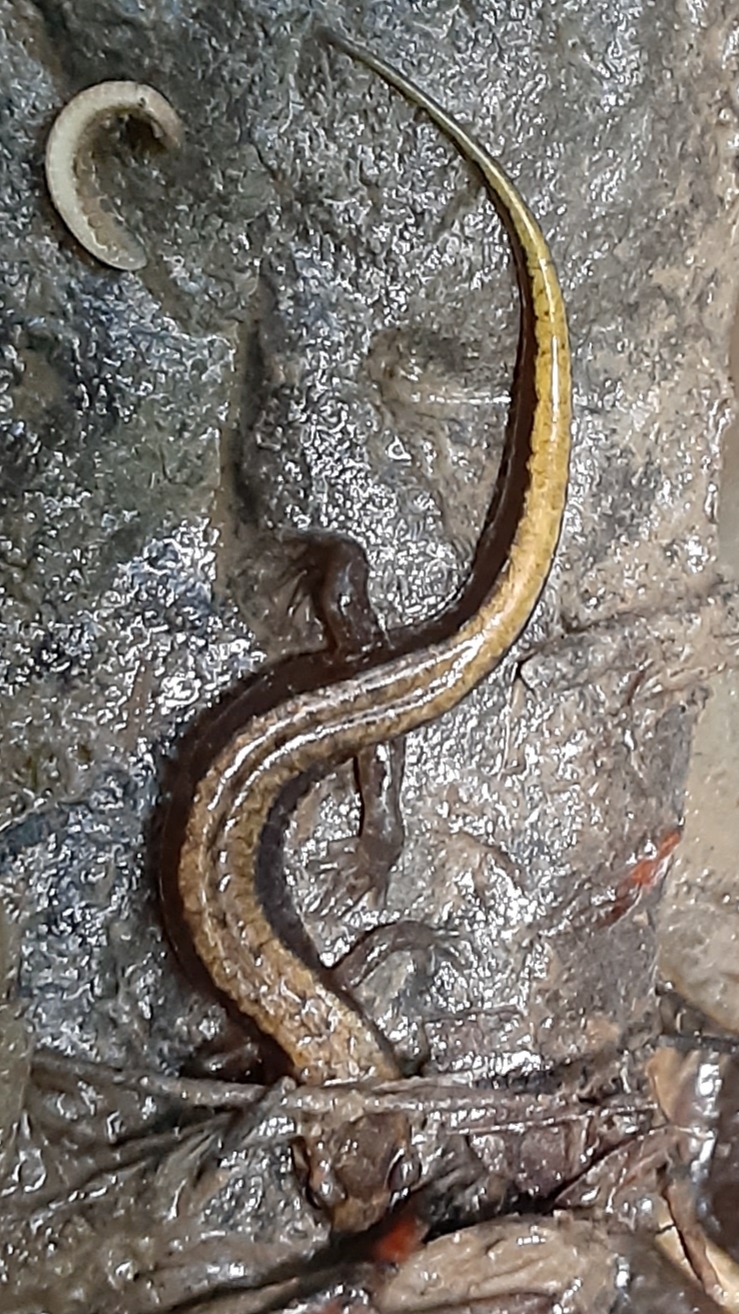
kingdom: Animalia
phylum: Chordata
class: Amphibia
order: Caudata
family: Plethodontidae
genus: Desmognathus
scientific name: Desmognathus ochrophaeus
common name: Allegheny mountain dusky salamander
